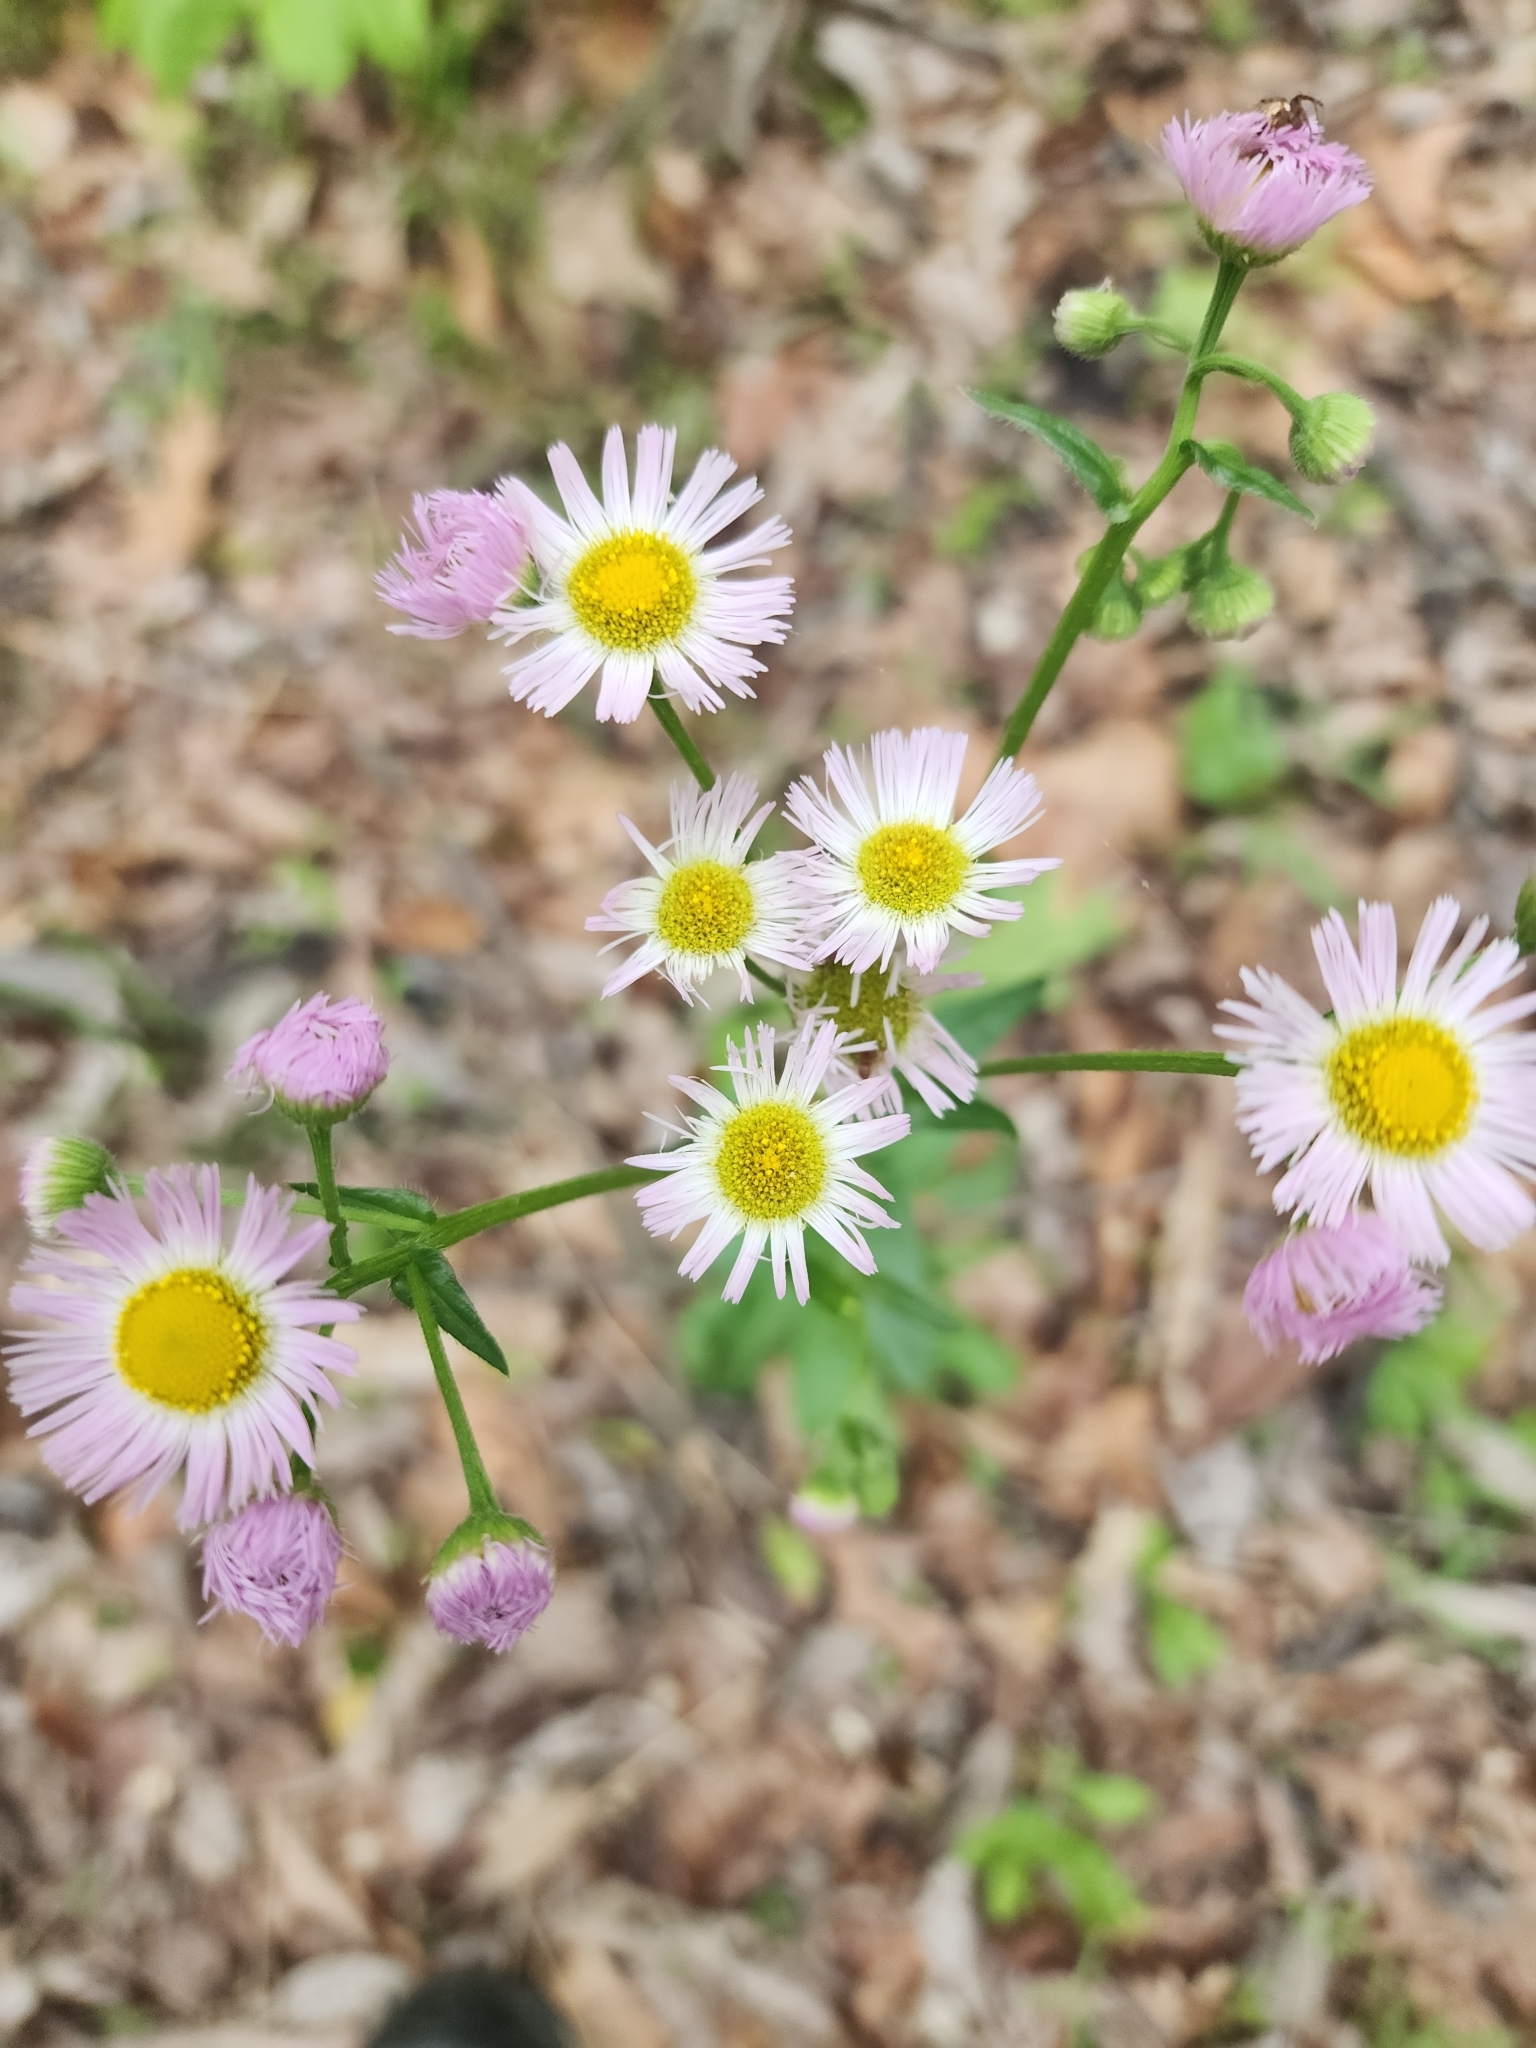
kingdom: Plantae
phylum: Tracheophyta
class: Magnoliopsida
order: Asterales
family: Asteraceae
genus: Erigeron
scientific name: Erigeron philadelphicus
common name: Robin's-plantain
